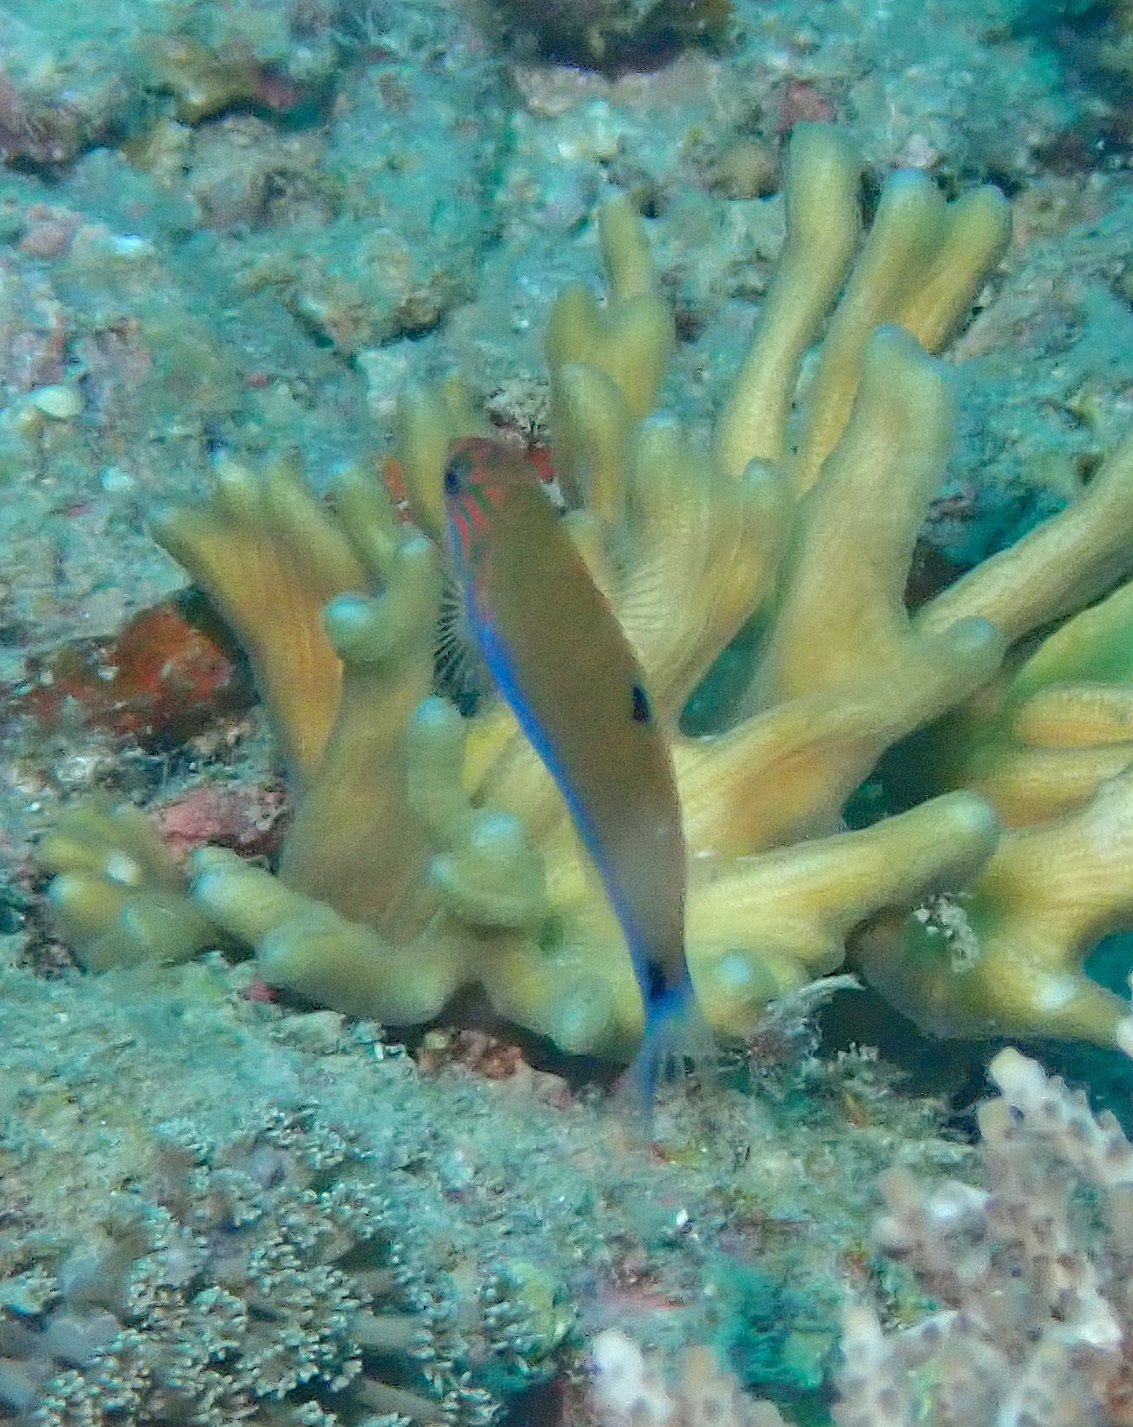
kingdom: Animalia
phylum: Chordata
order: Perciformes
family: Labridae
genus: Thalassoma
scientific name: Thalassoma lunare
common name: Blue wrasse
